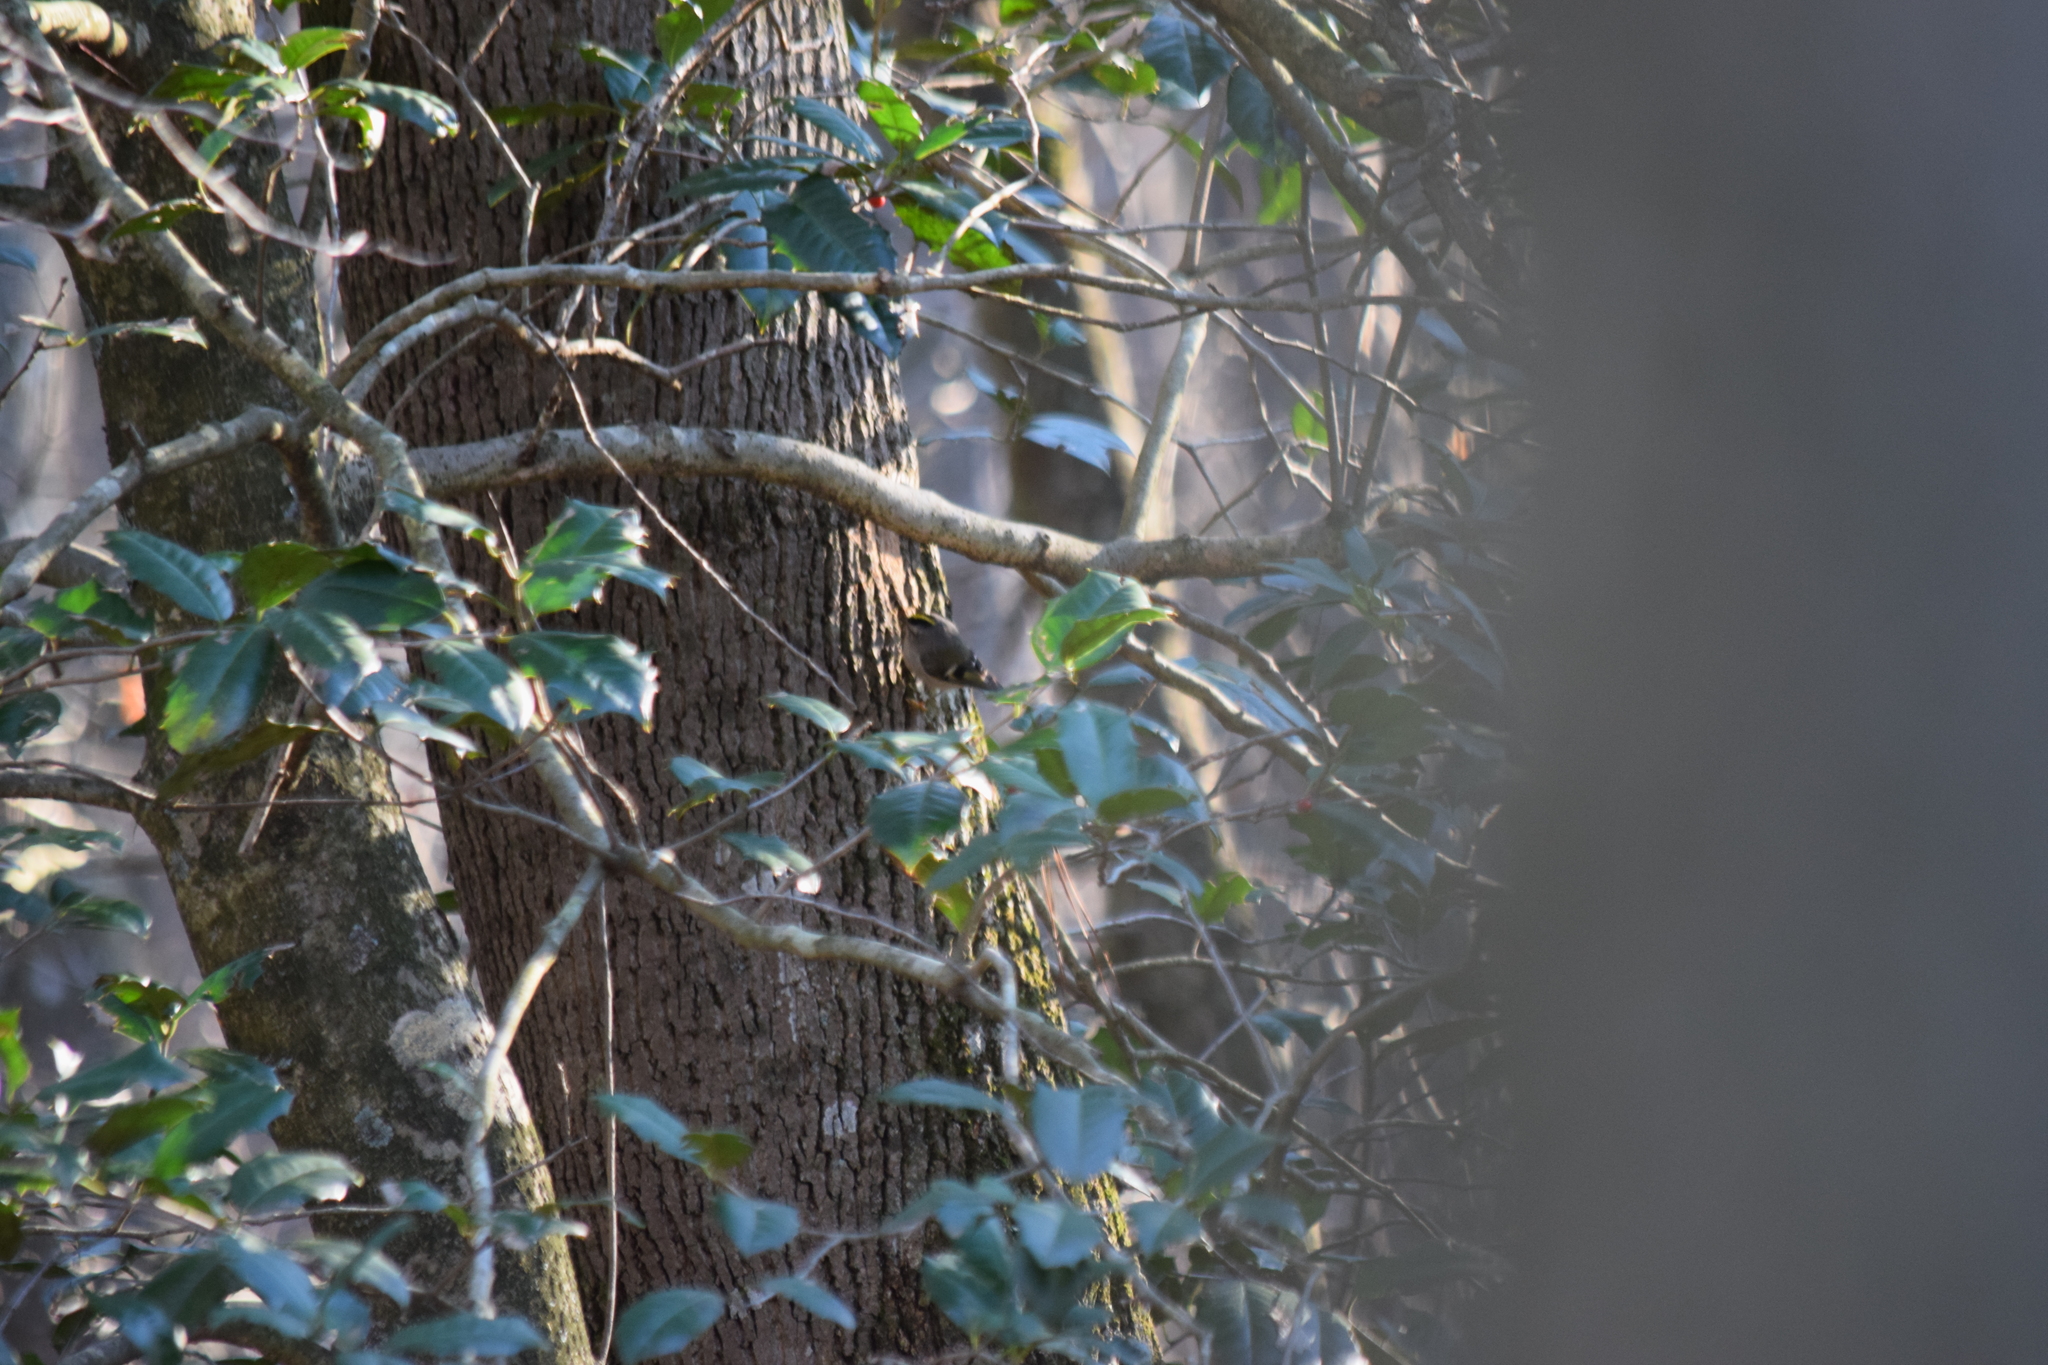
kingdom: Animalia
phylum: Chordata
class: Aves
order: Passeriformes
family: Regulidae
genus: Regulus
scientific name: Regulus satrapa
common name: Golden-crowned kinglet
